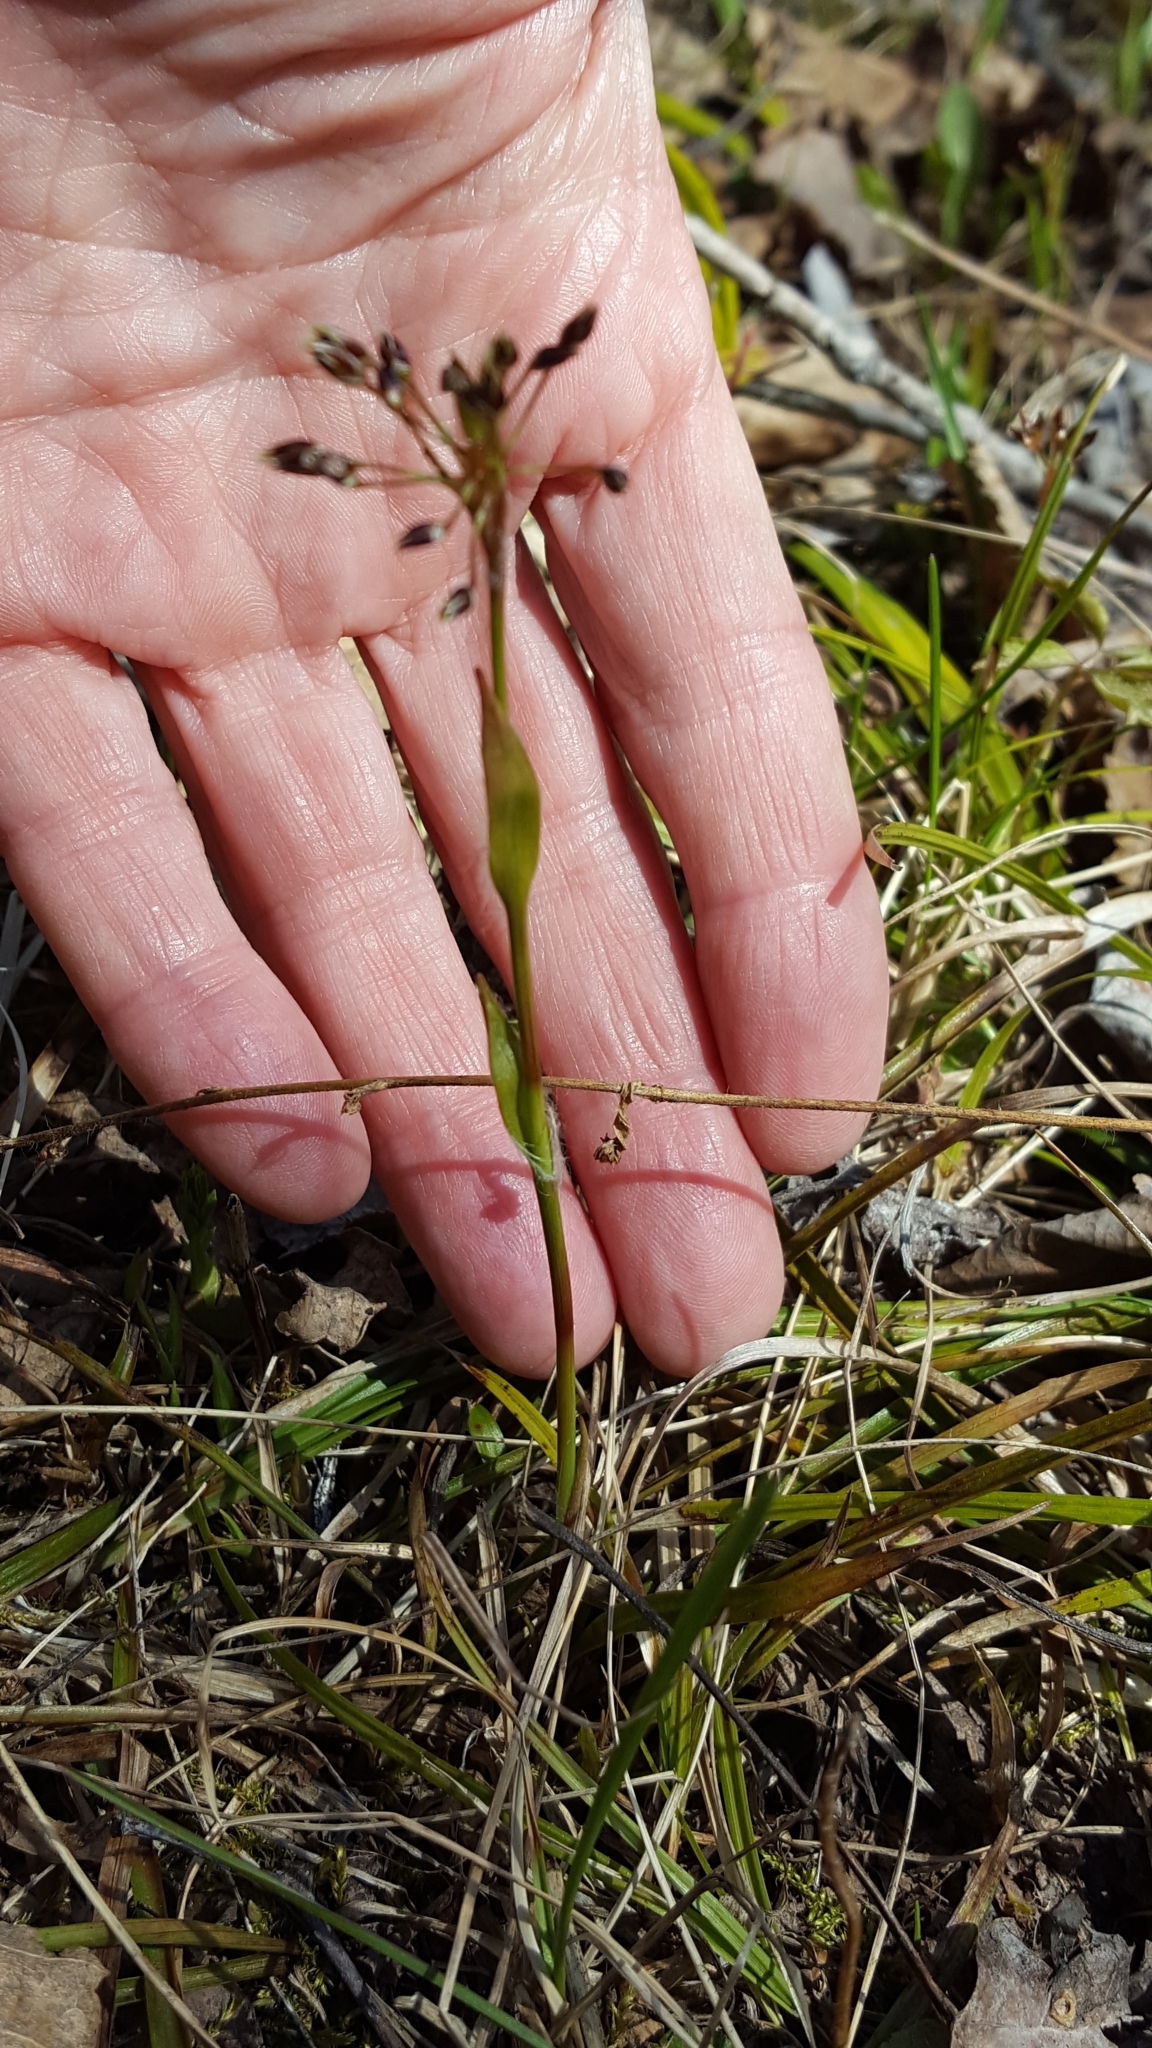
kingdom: Plantae
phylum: Tracheophyta
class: Liliopsida
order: Poales
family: Juncaceae
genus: Luzula
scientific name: Luzula acuminata
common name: Hairy woodrush
